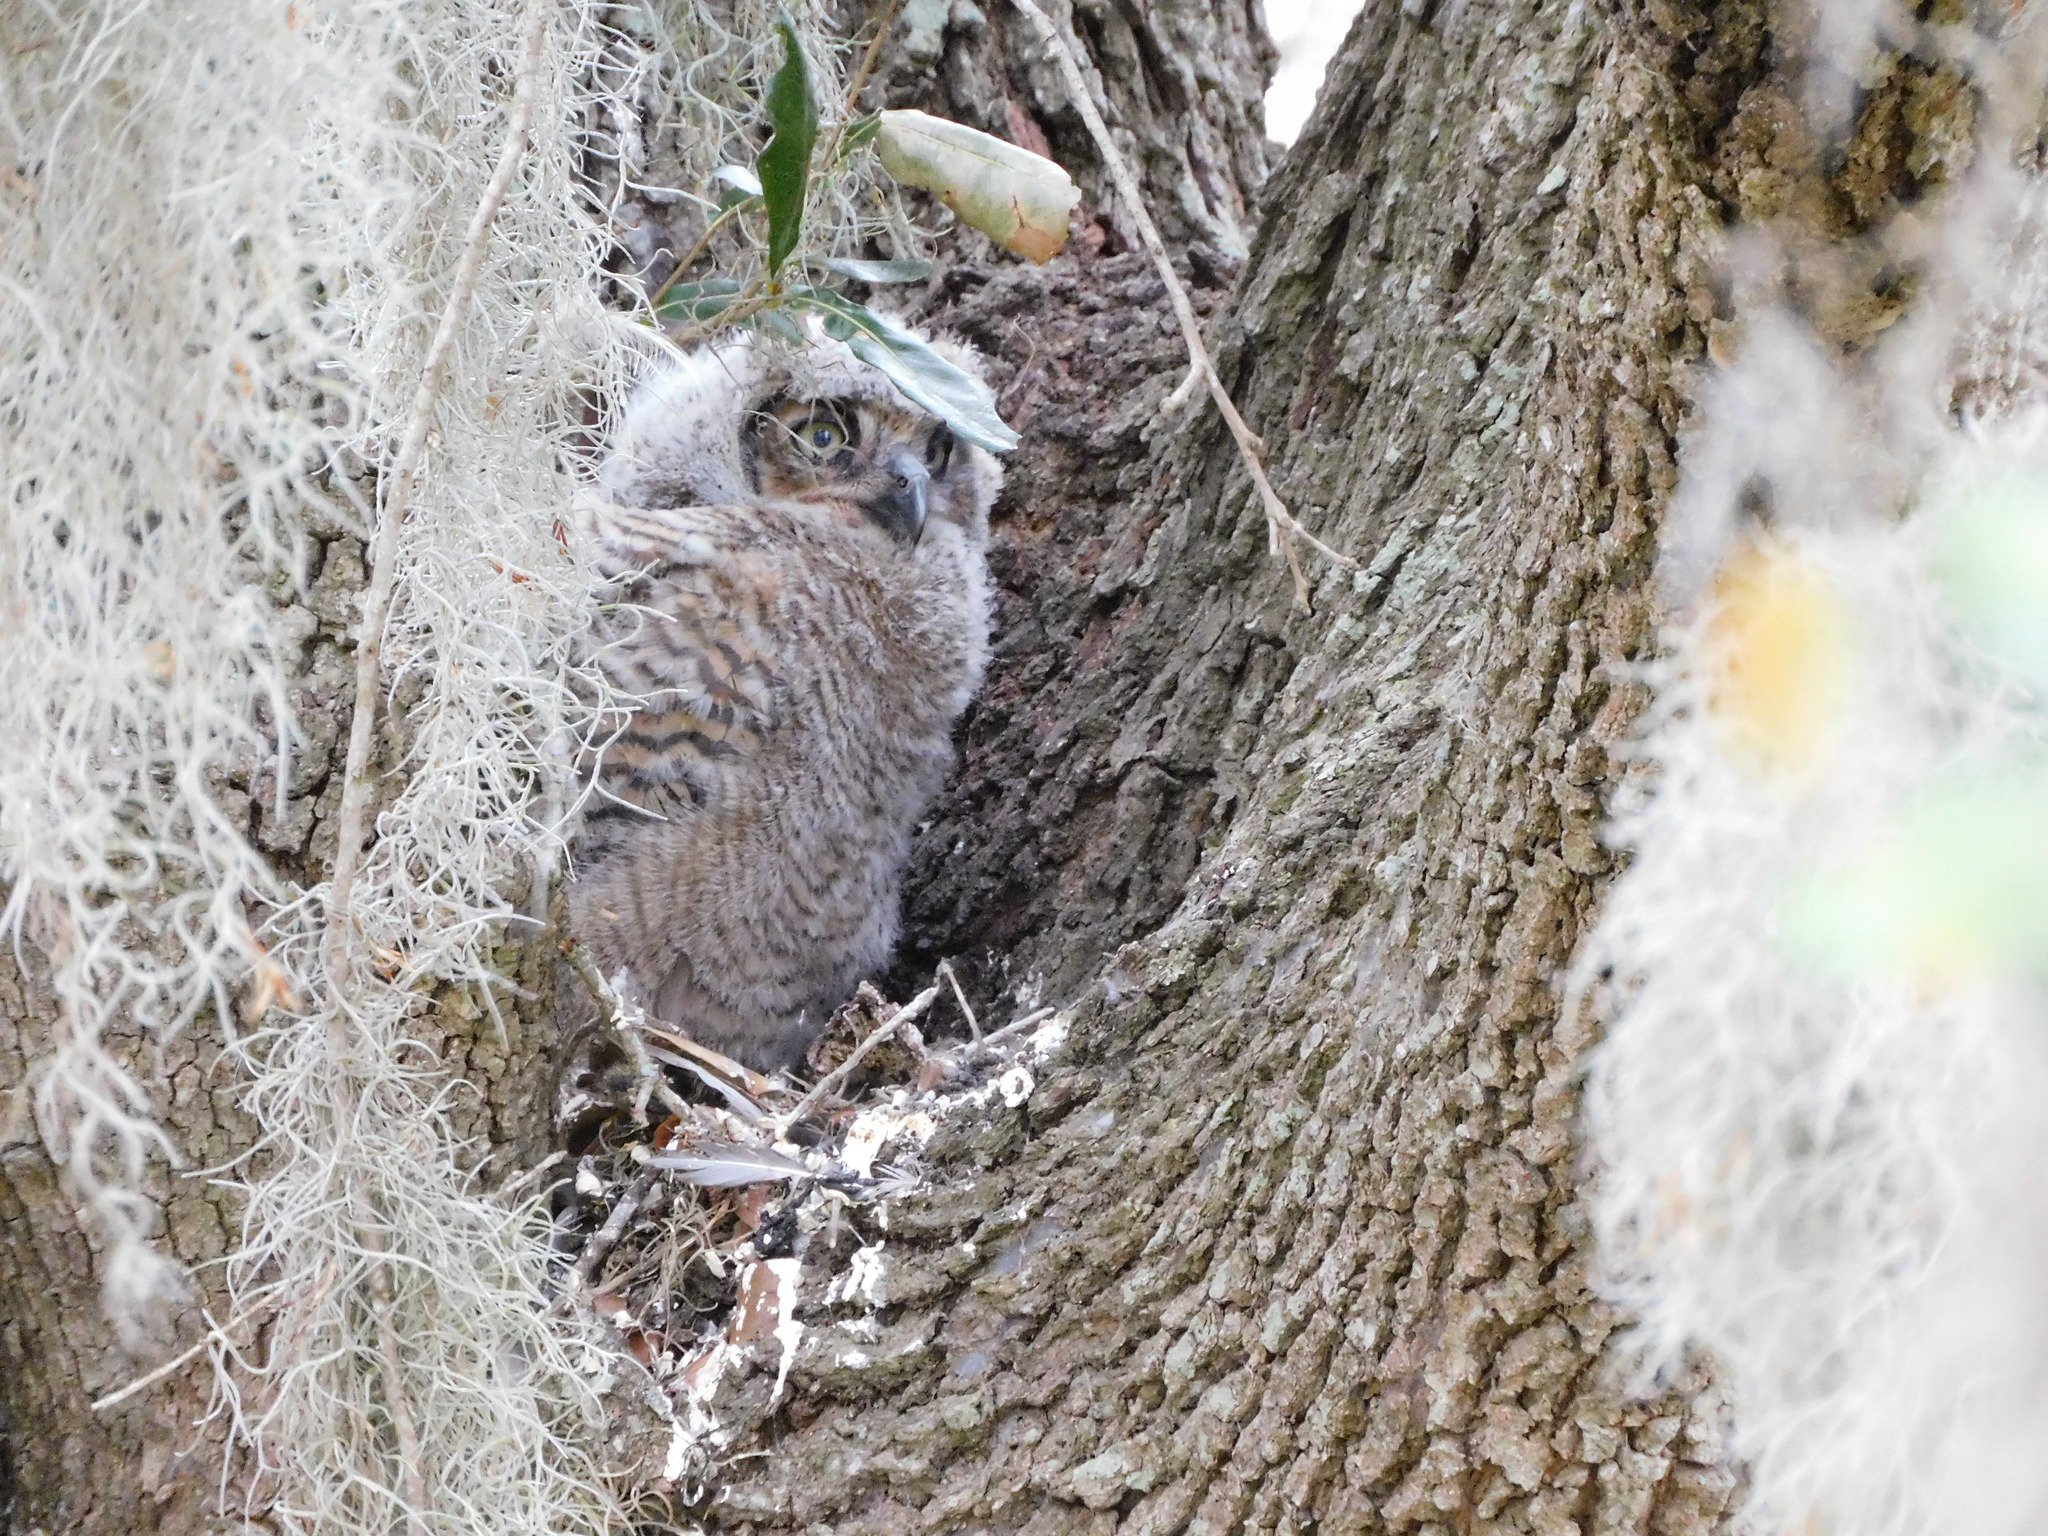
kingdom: Animalia
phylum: Chordata
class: Aves
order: Strigiformes
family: Strigidae
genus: Bubo
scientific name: Bubo virginianus
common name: Great horned owl
